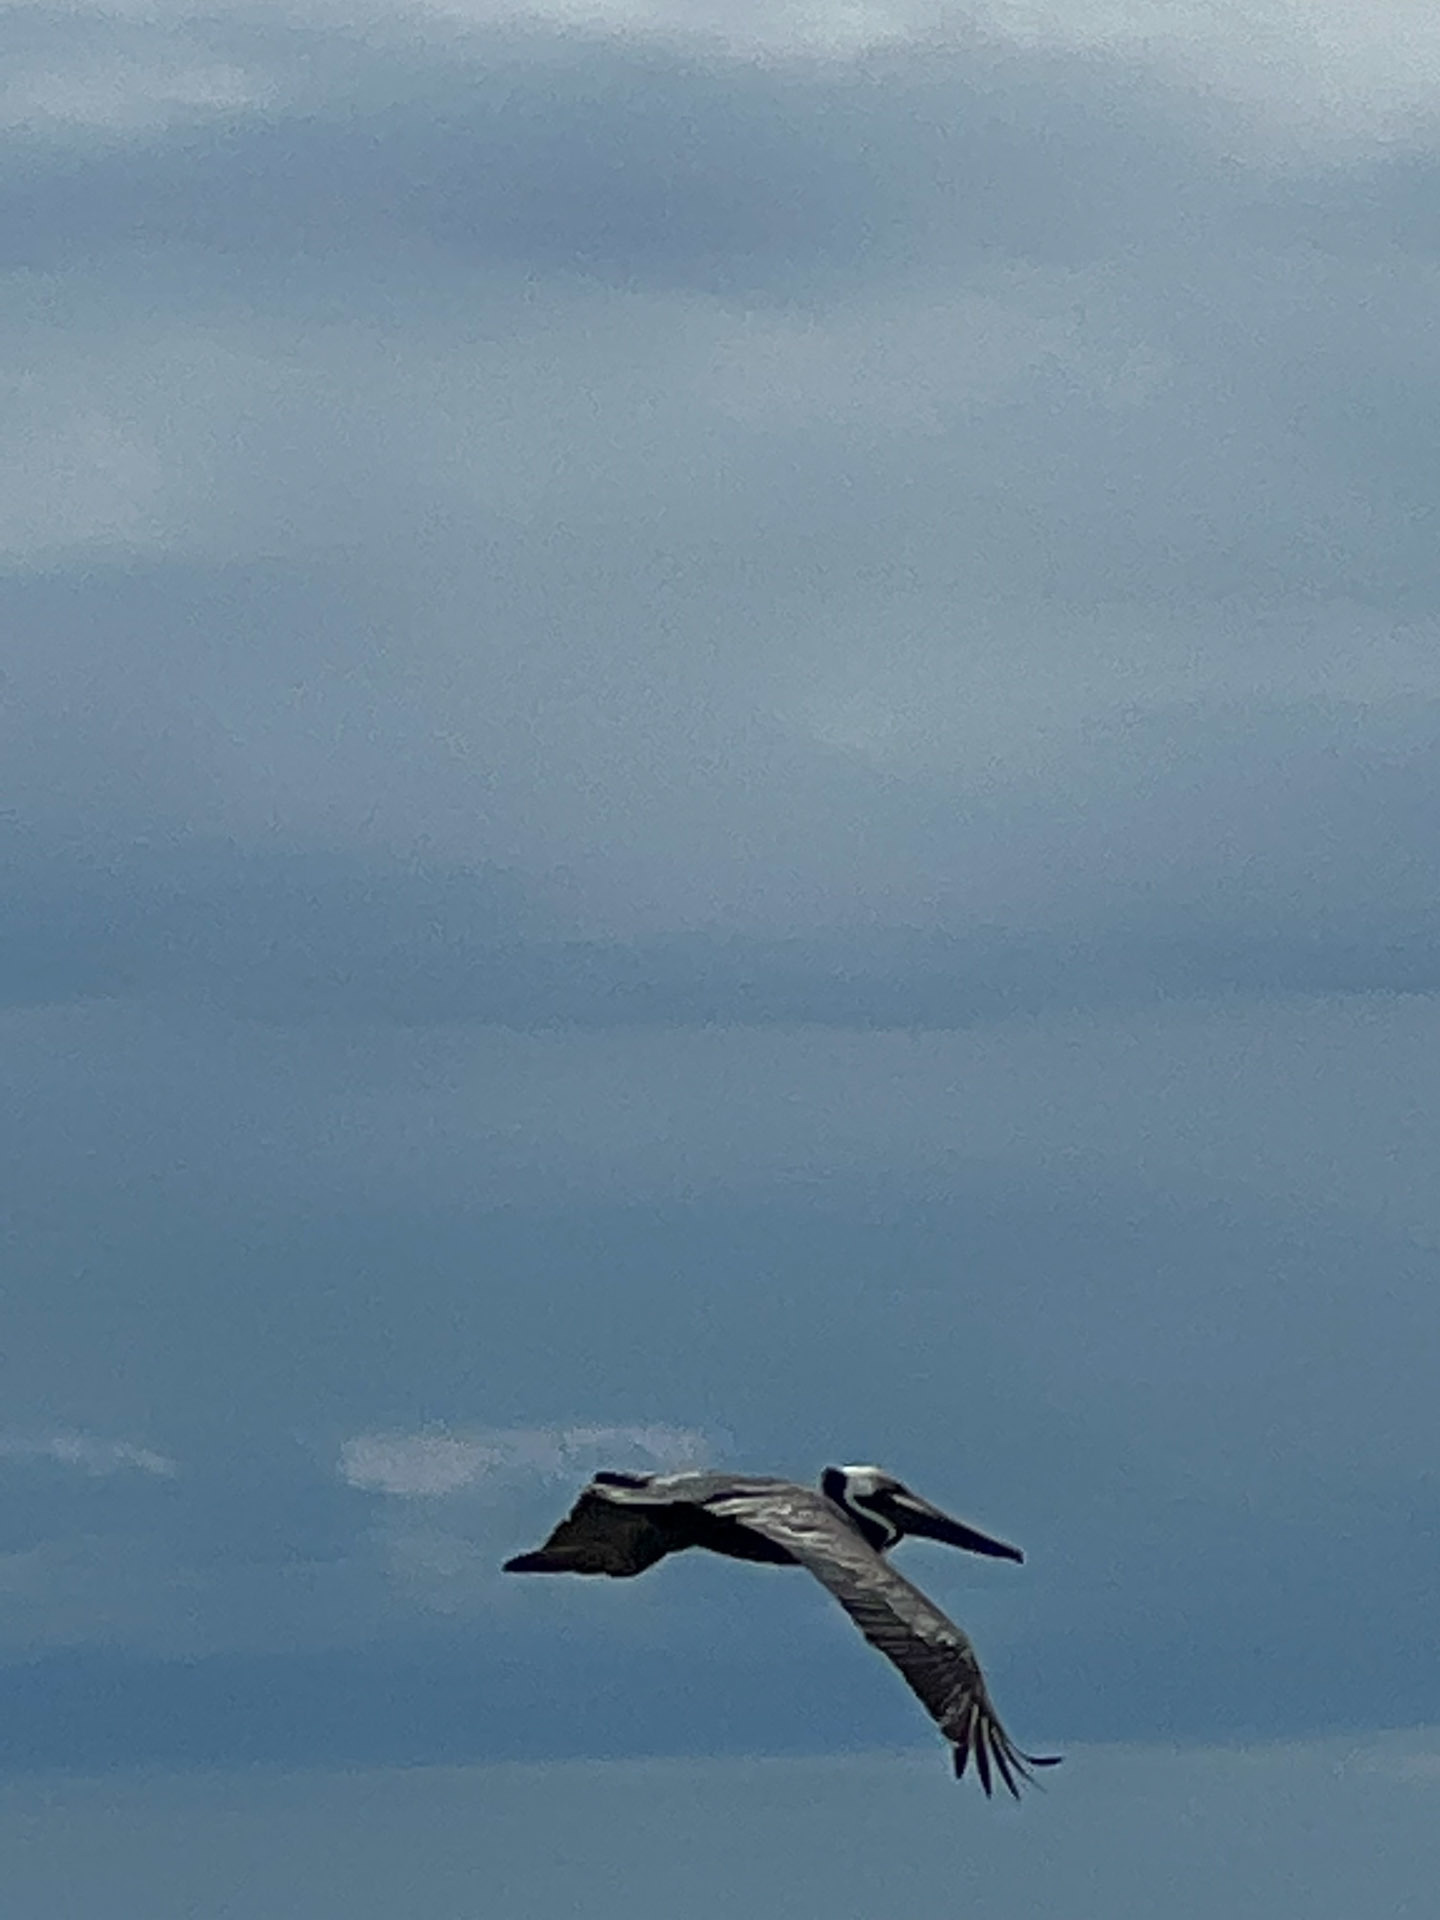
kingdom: Animalia
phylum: Chordata
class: Aves
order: Pelecaniformes
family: Pelecanidae
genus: Pelecanus
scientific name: Pelecanus occidentalis
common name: Brown pelican
